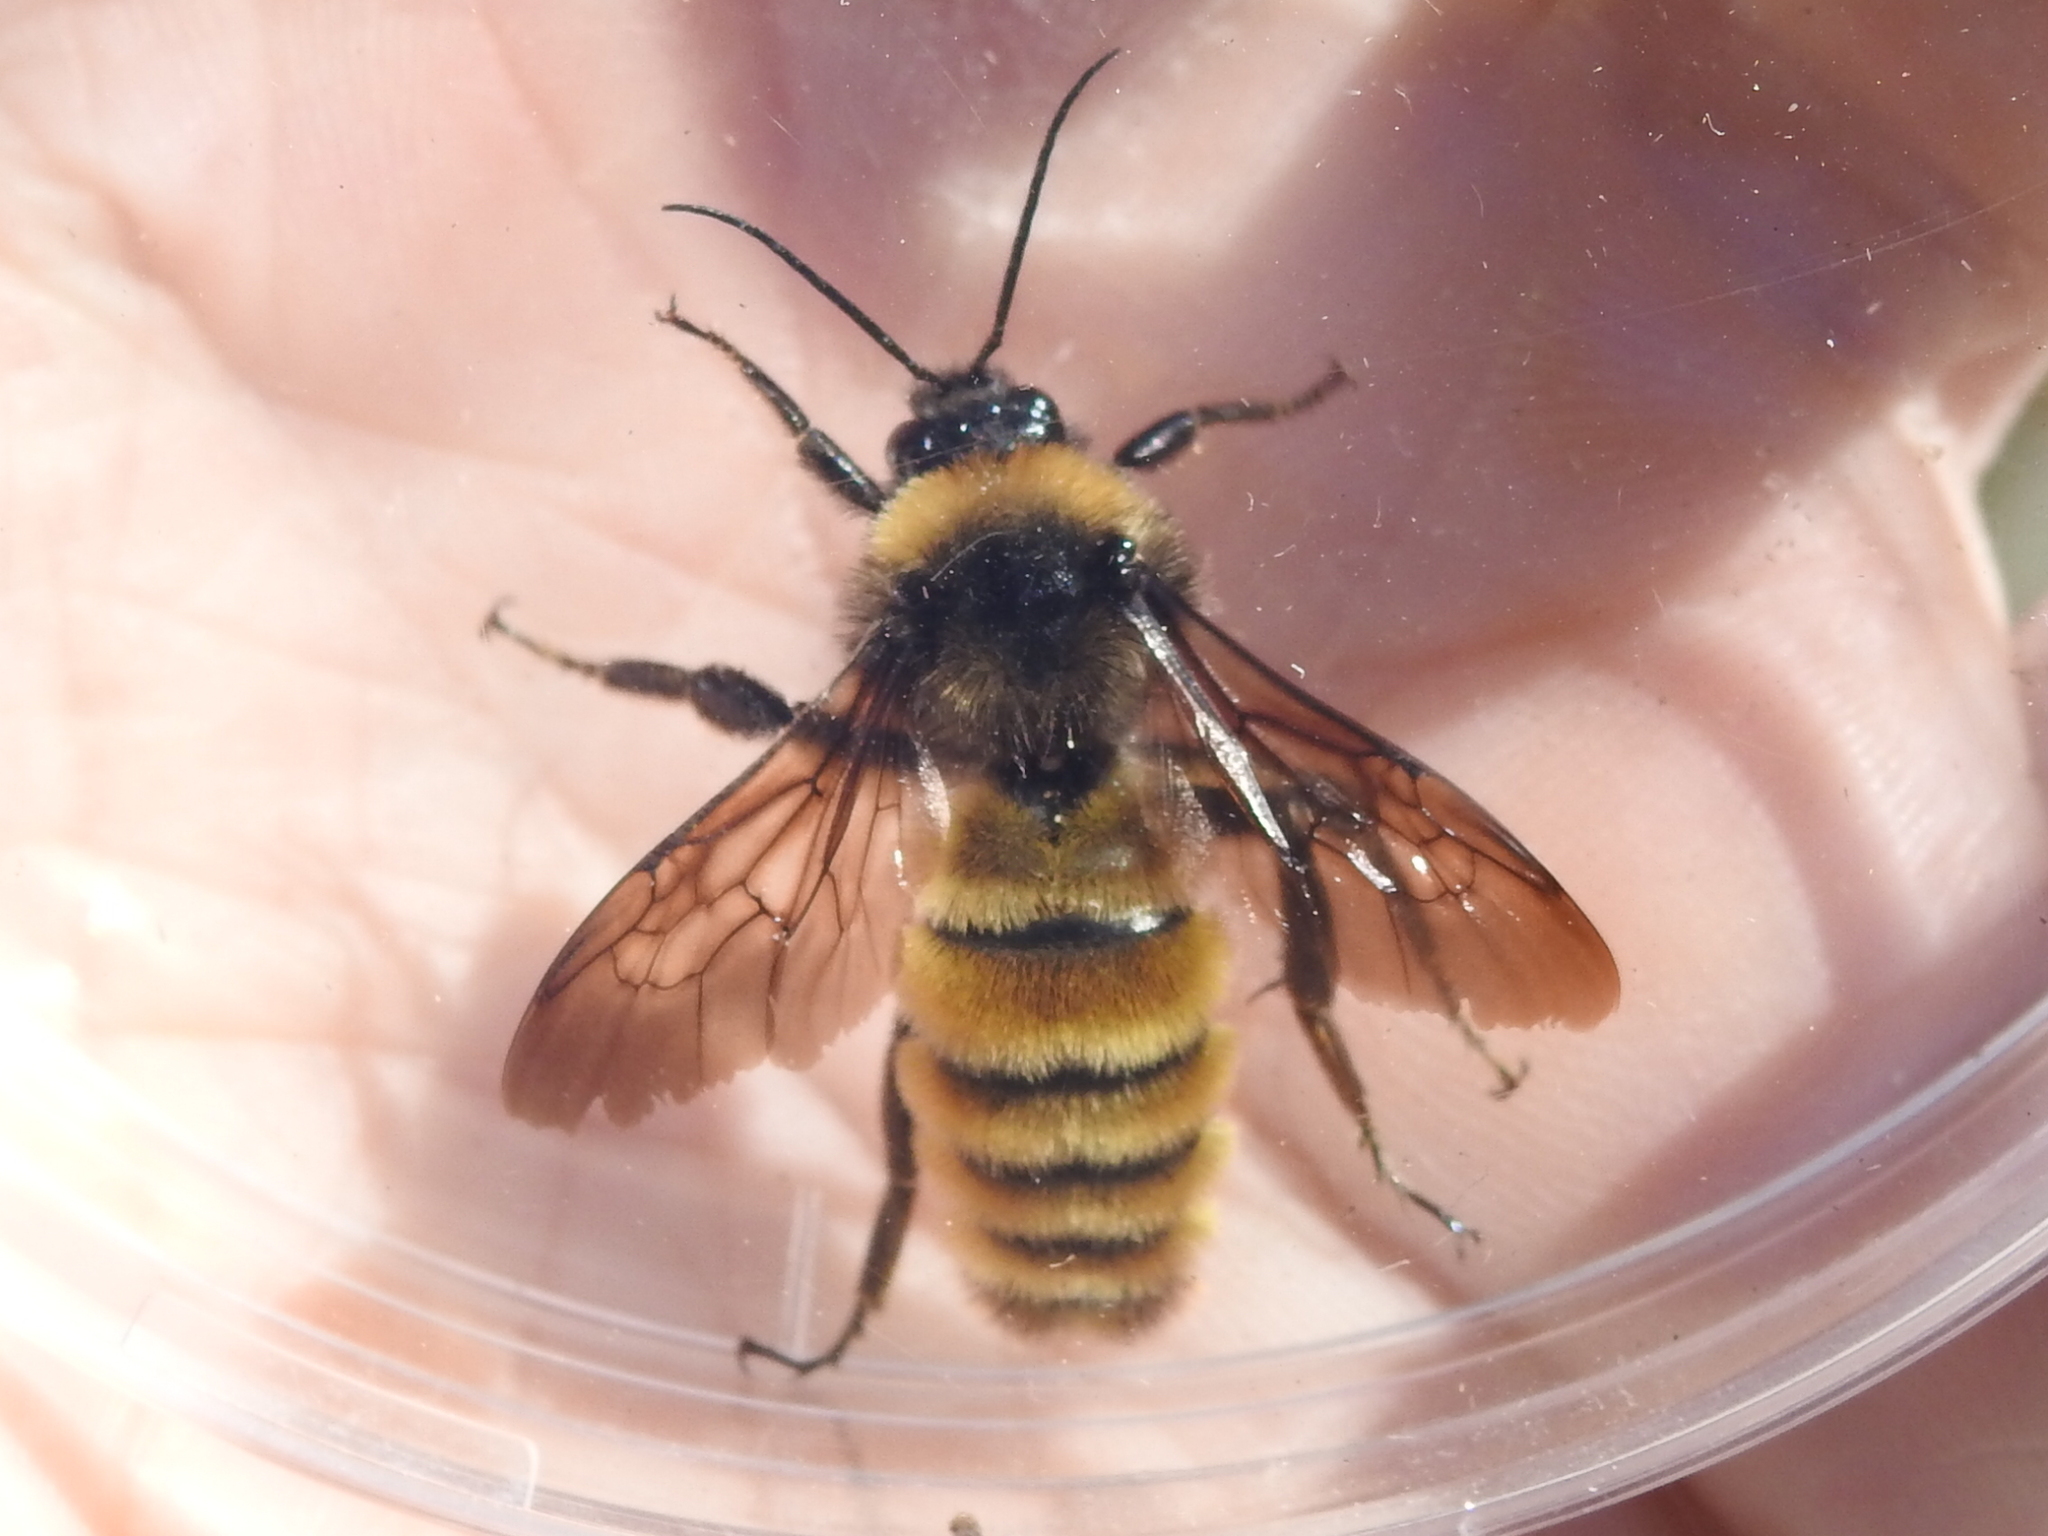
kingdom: Animalia
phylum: Arthropoda
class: Insecta
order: Hymenoptera
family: Apidae
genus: Bombus
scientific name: Bombus pensylvanicus
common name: Bumble bee
